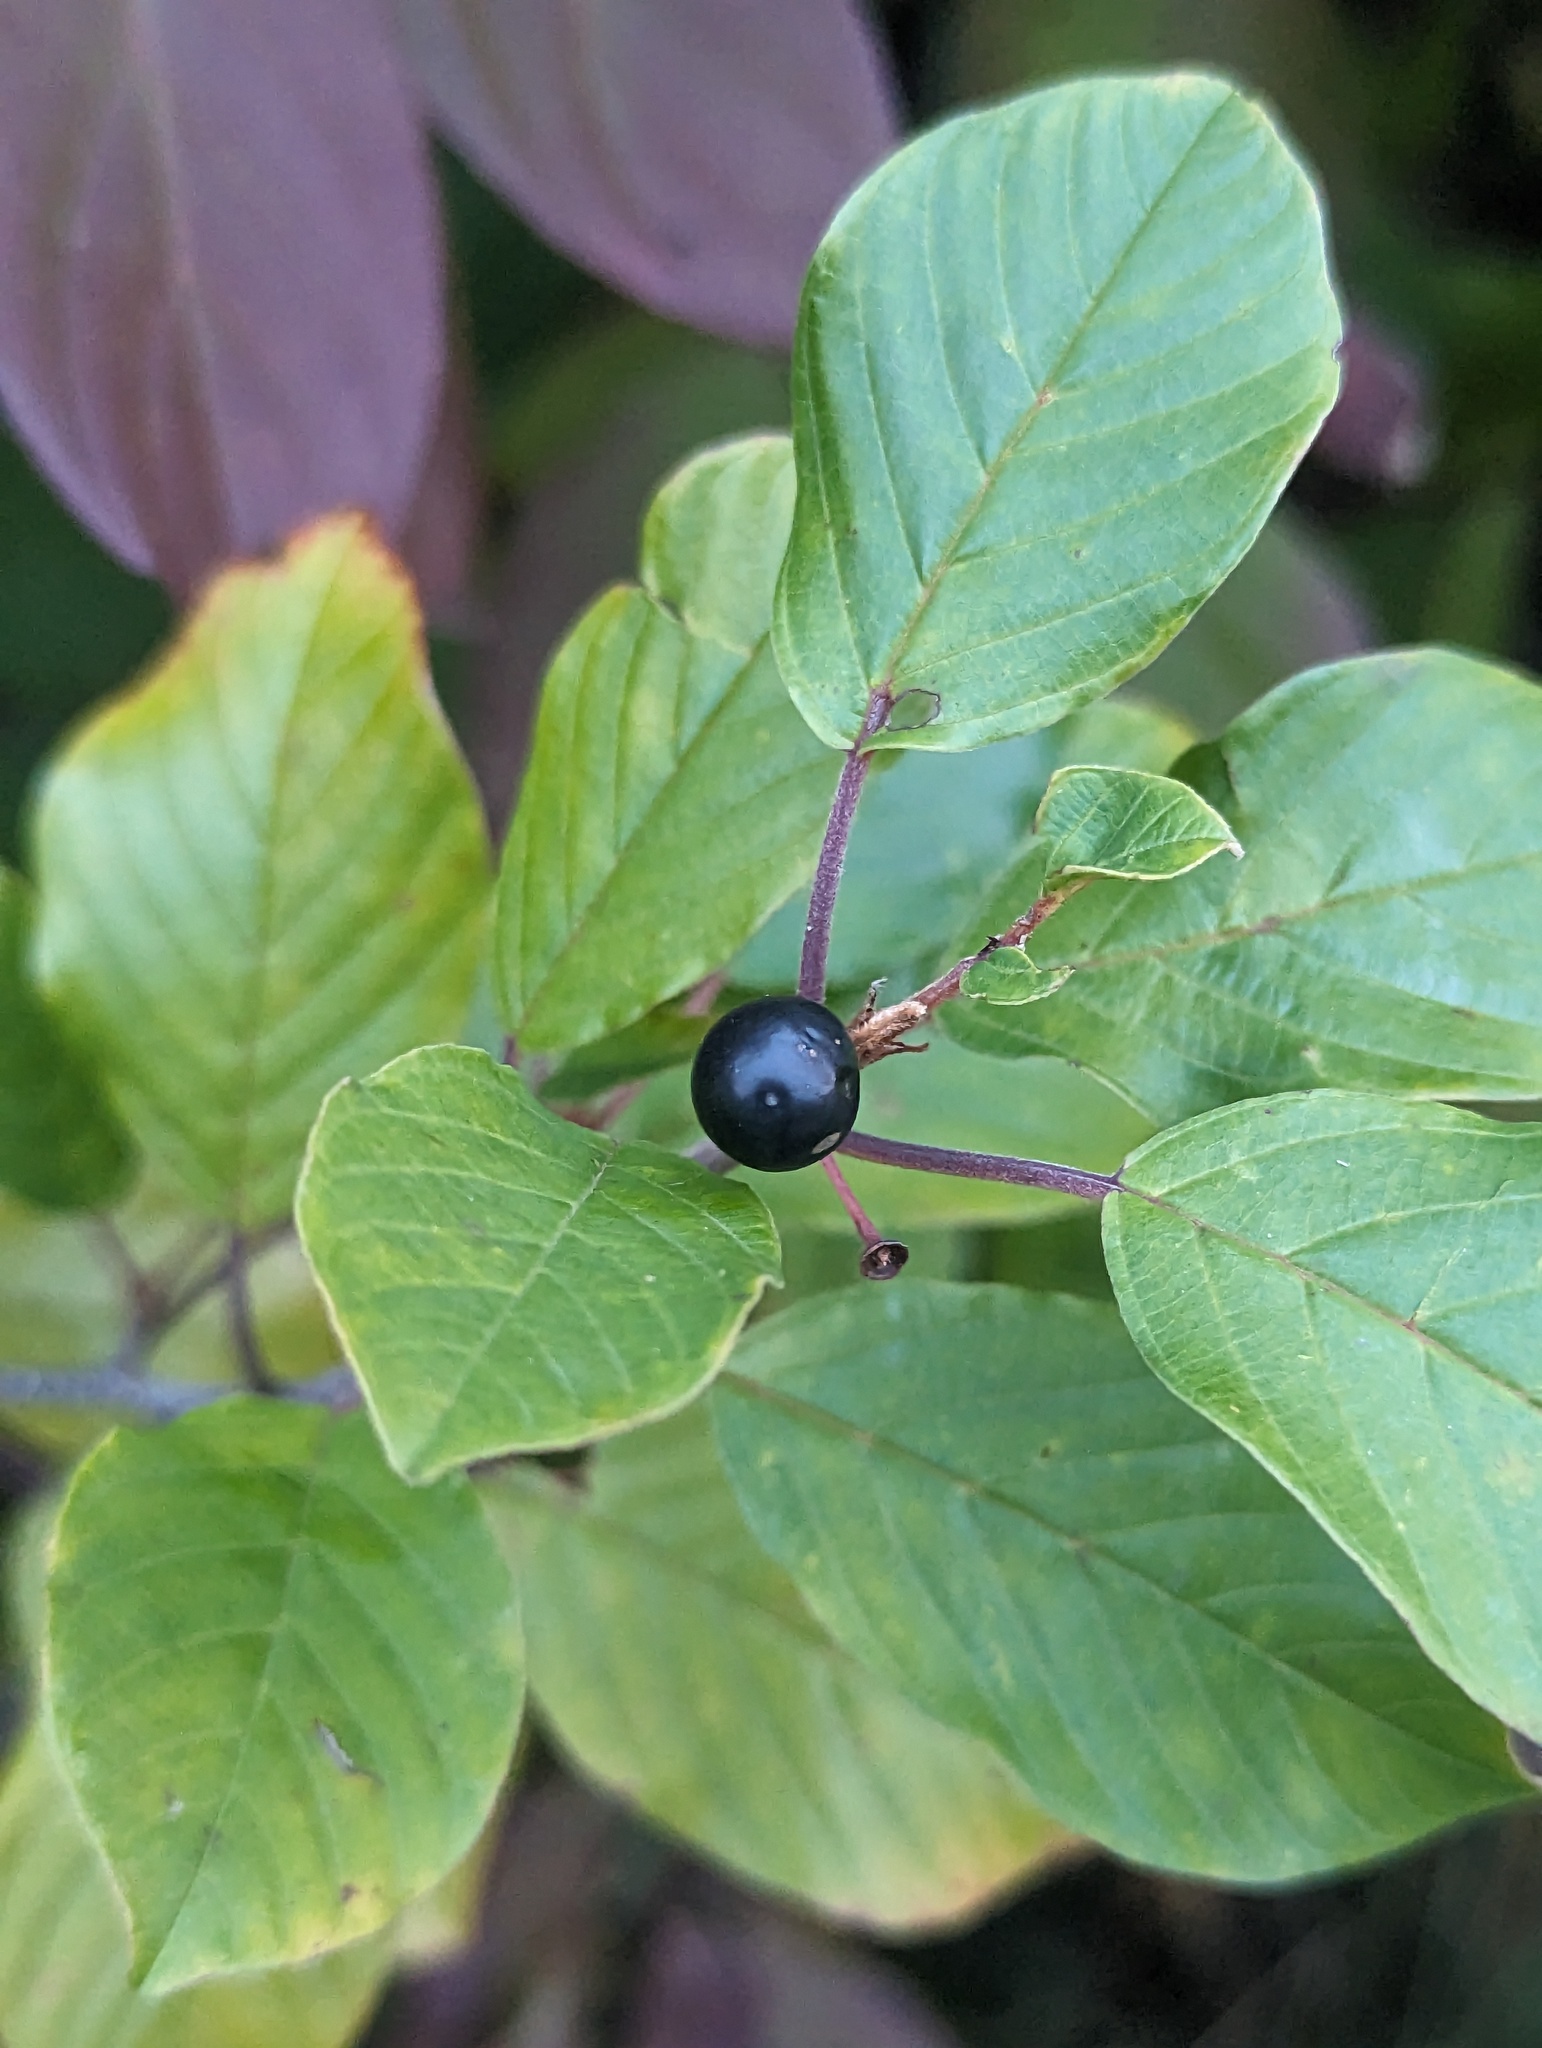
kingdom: Plantae
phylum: Tracheophyta
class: Magnoliopsida
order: Rosales
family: Rhamnaceae
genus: Frangula
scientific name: Frangula alnus
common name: Alder buckthorn
